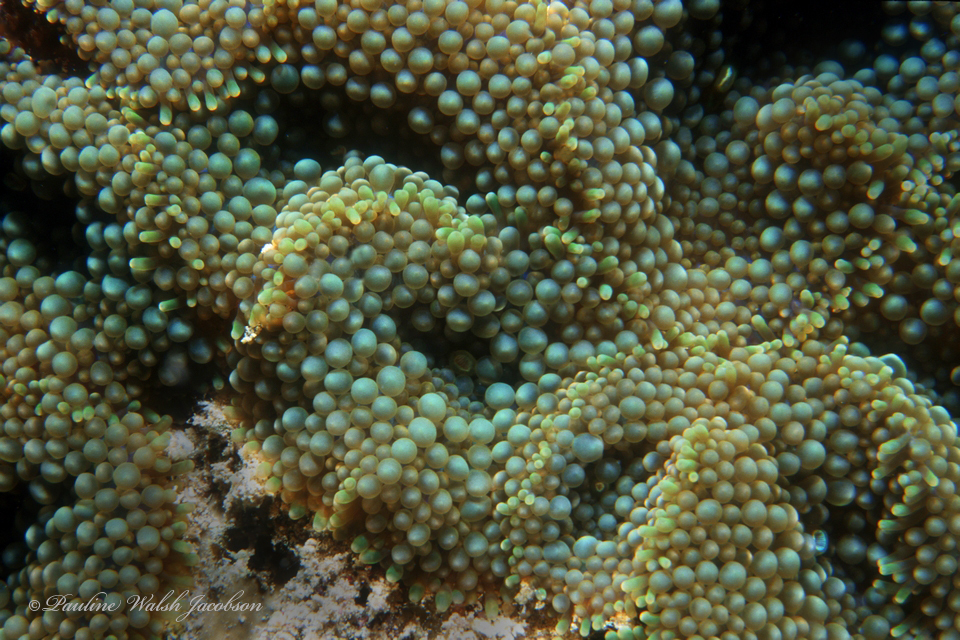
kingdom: Animalia
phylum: Cnidaria
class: Anthozoa
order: Corallimorpharia
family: Ricordeidae
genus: Ricordea
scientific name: Ricordea florida
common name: False coral
